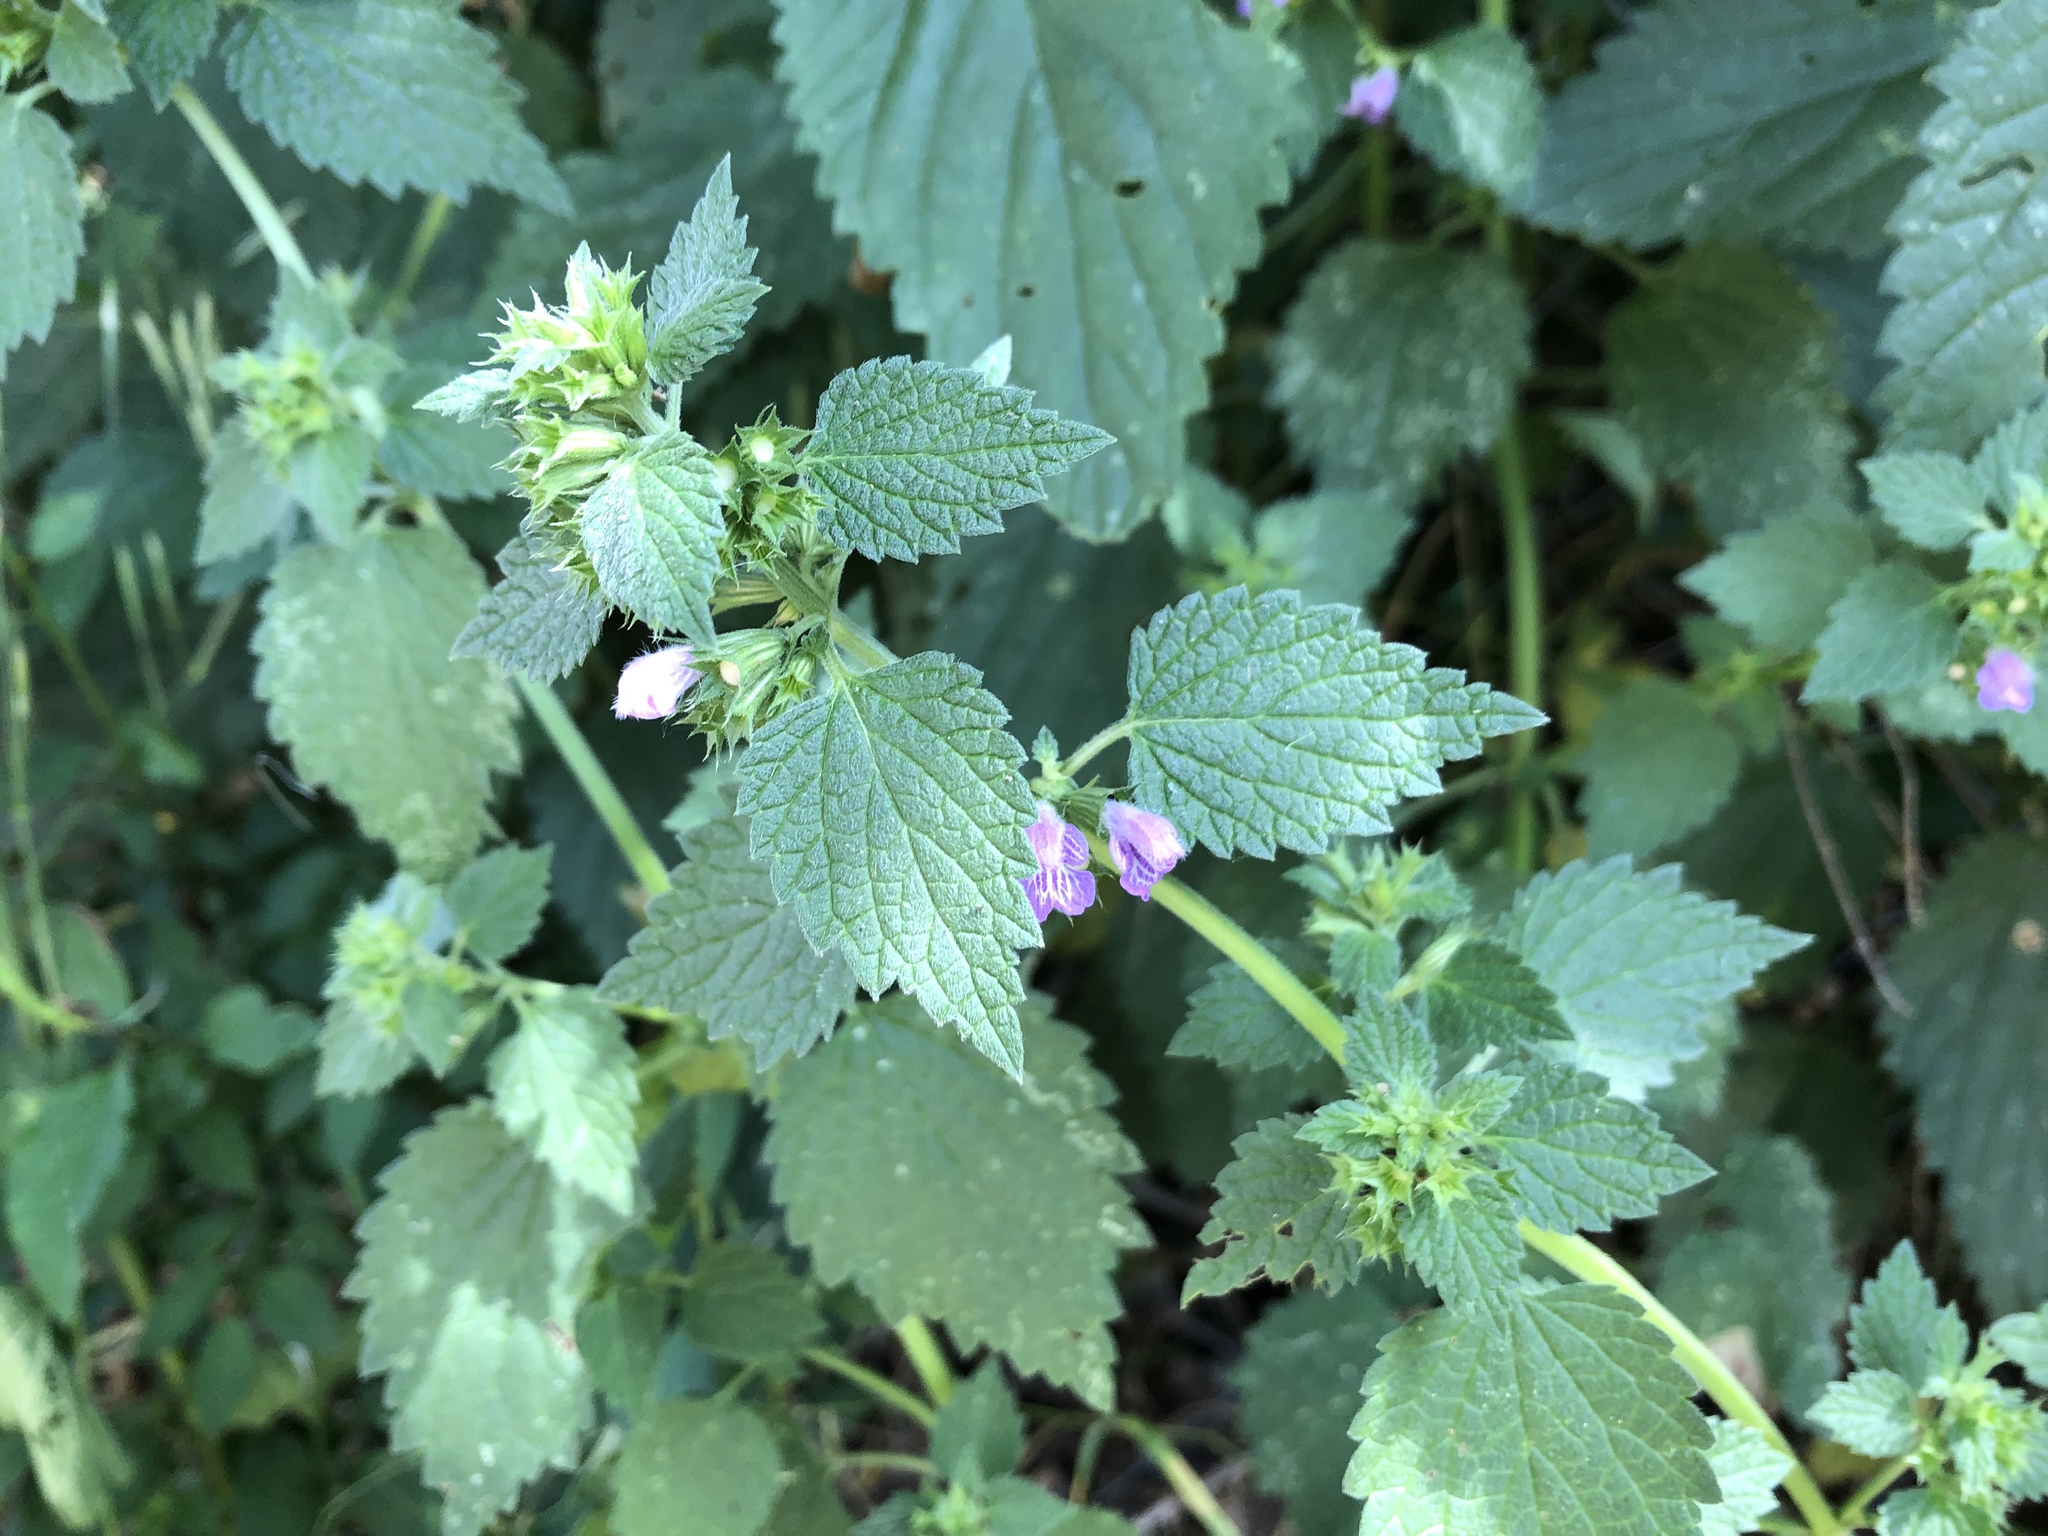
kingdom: Plantae
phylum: Tracheophyta
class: Magnoliopsida
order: Lamiales
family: Lamiaceae
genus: Ballota
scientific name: Ballota nigra
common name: Black horehound
